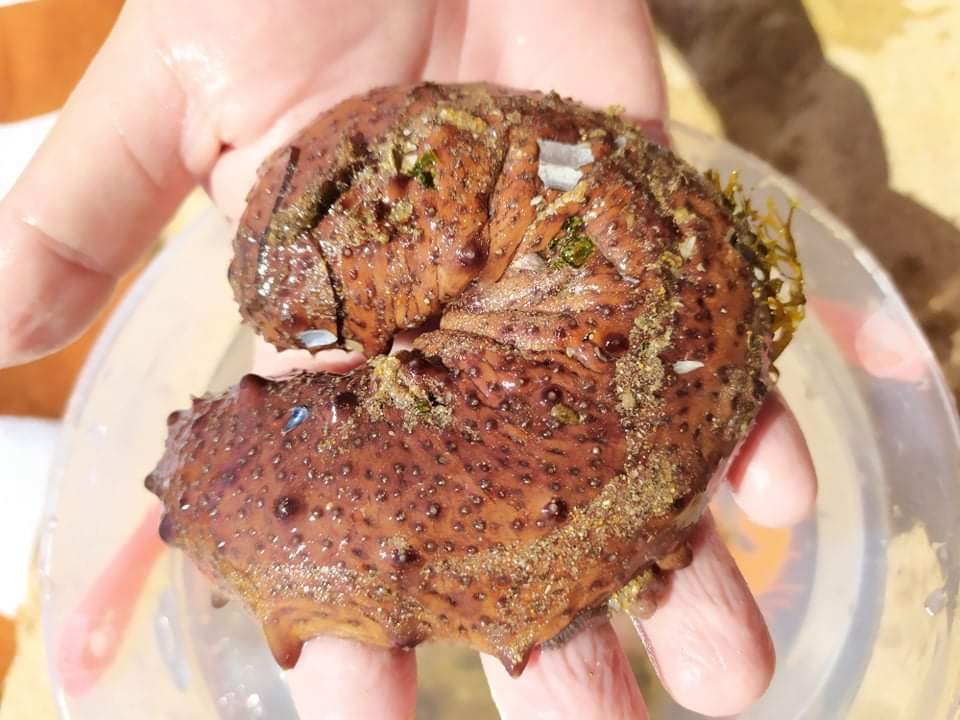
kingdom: Animalia
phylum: Echinodermata
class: Holothuroidea
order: Holothuriida
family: Holothuriidae
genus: Holothuria
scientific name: Holothuria arguinensis
